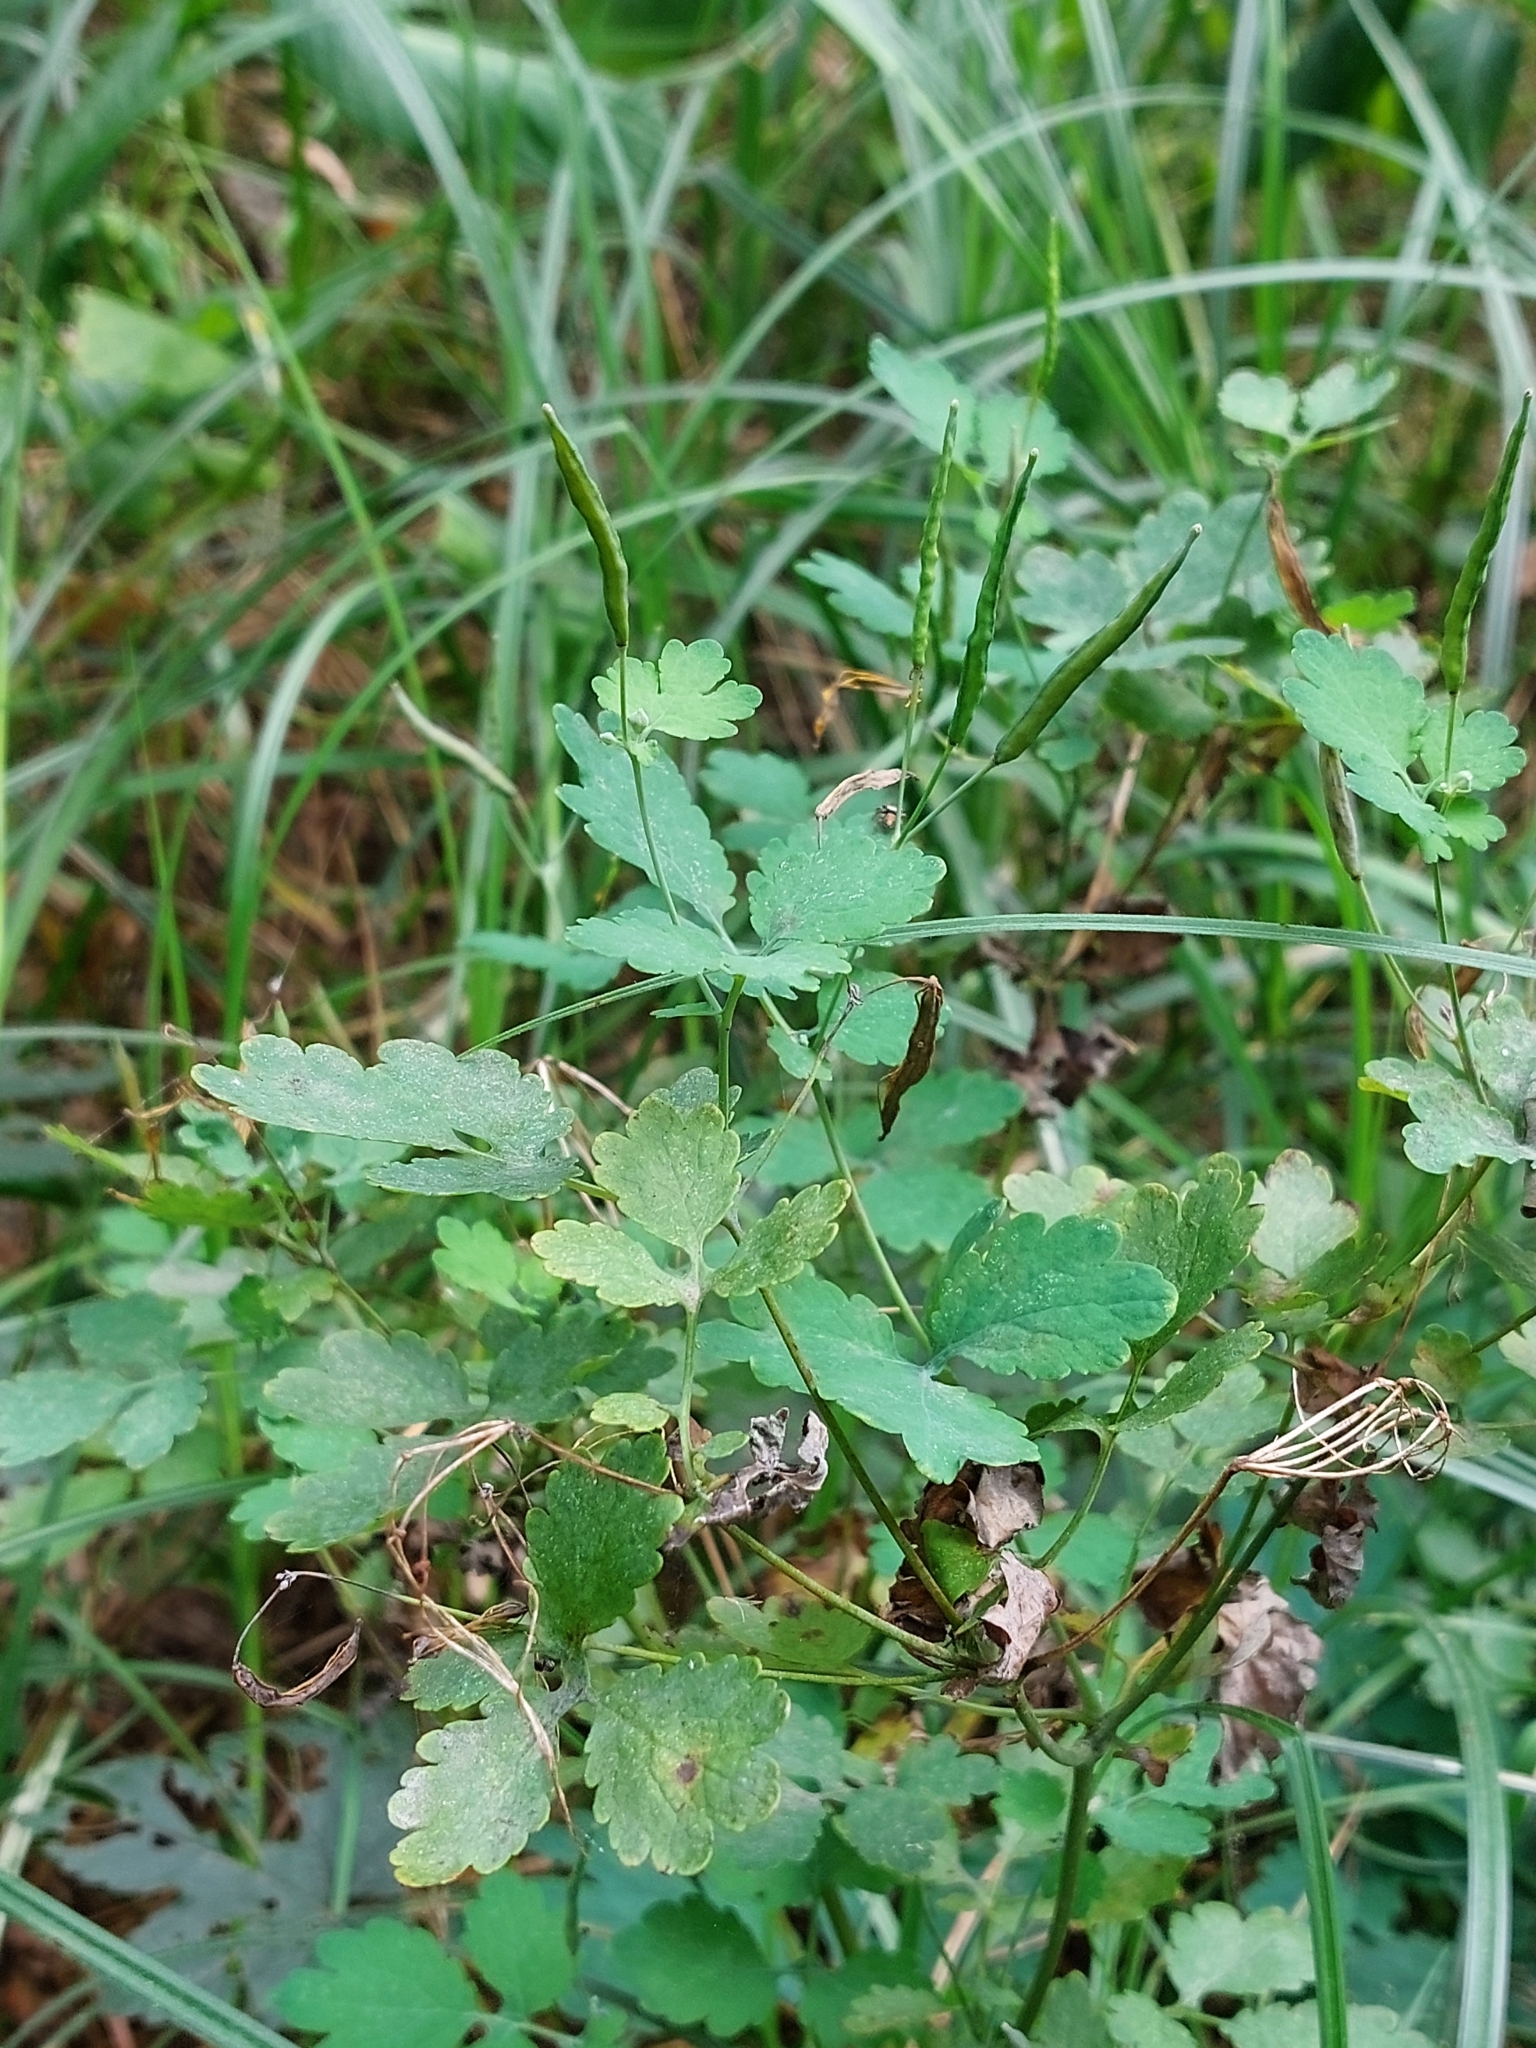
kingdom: Plantae
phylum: Tracheophyta
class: Magnoliopsida
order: Ranunculales
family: Papaveraceae
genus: Chelidonium
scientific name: Chelidonium majus
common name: Greater celandine
